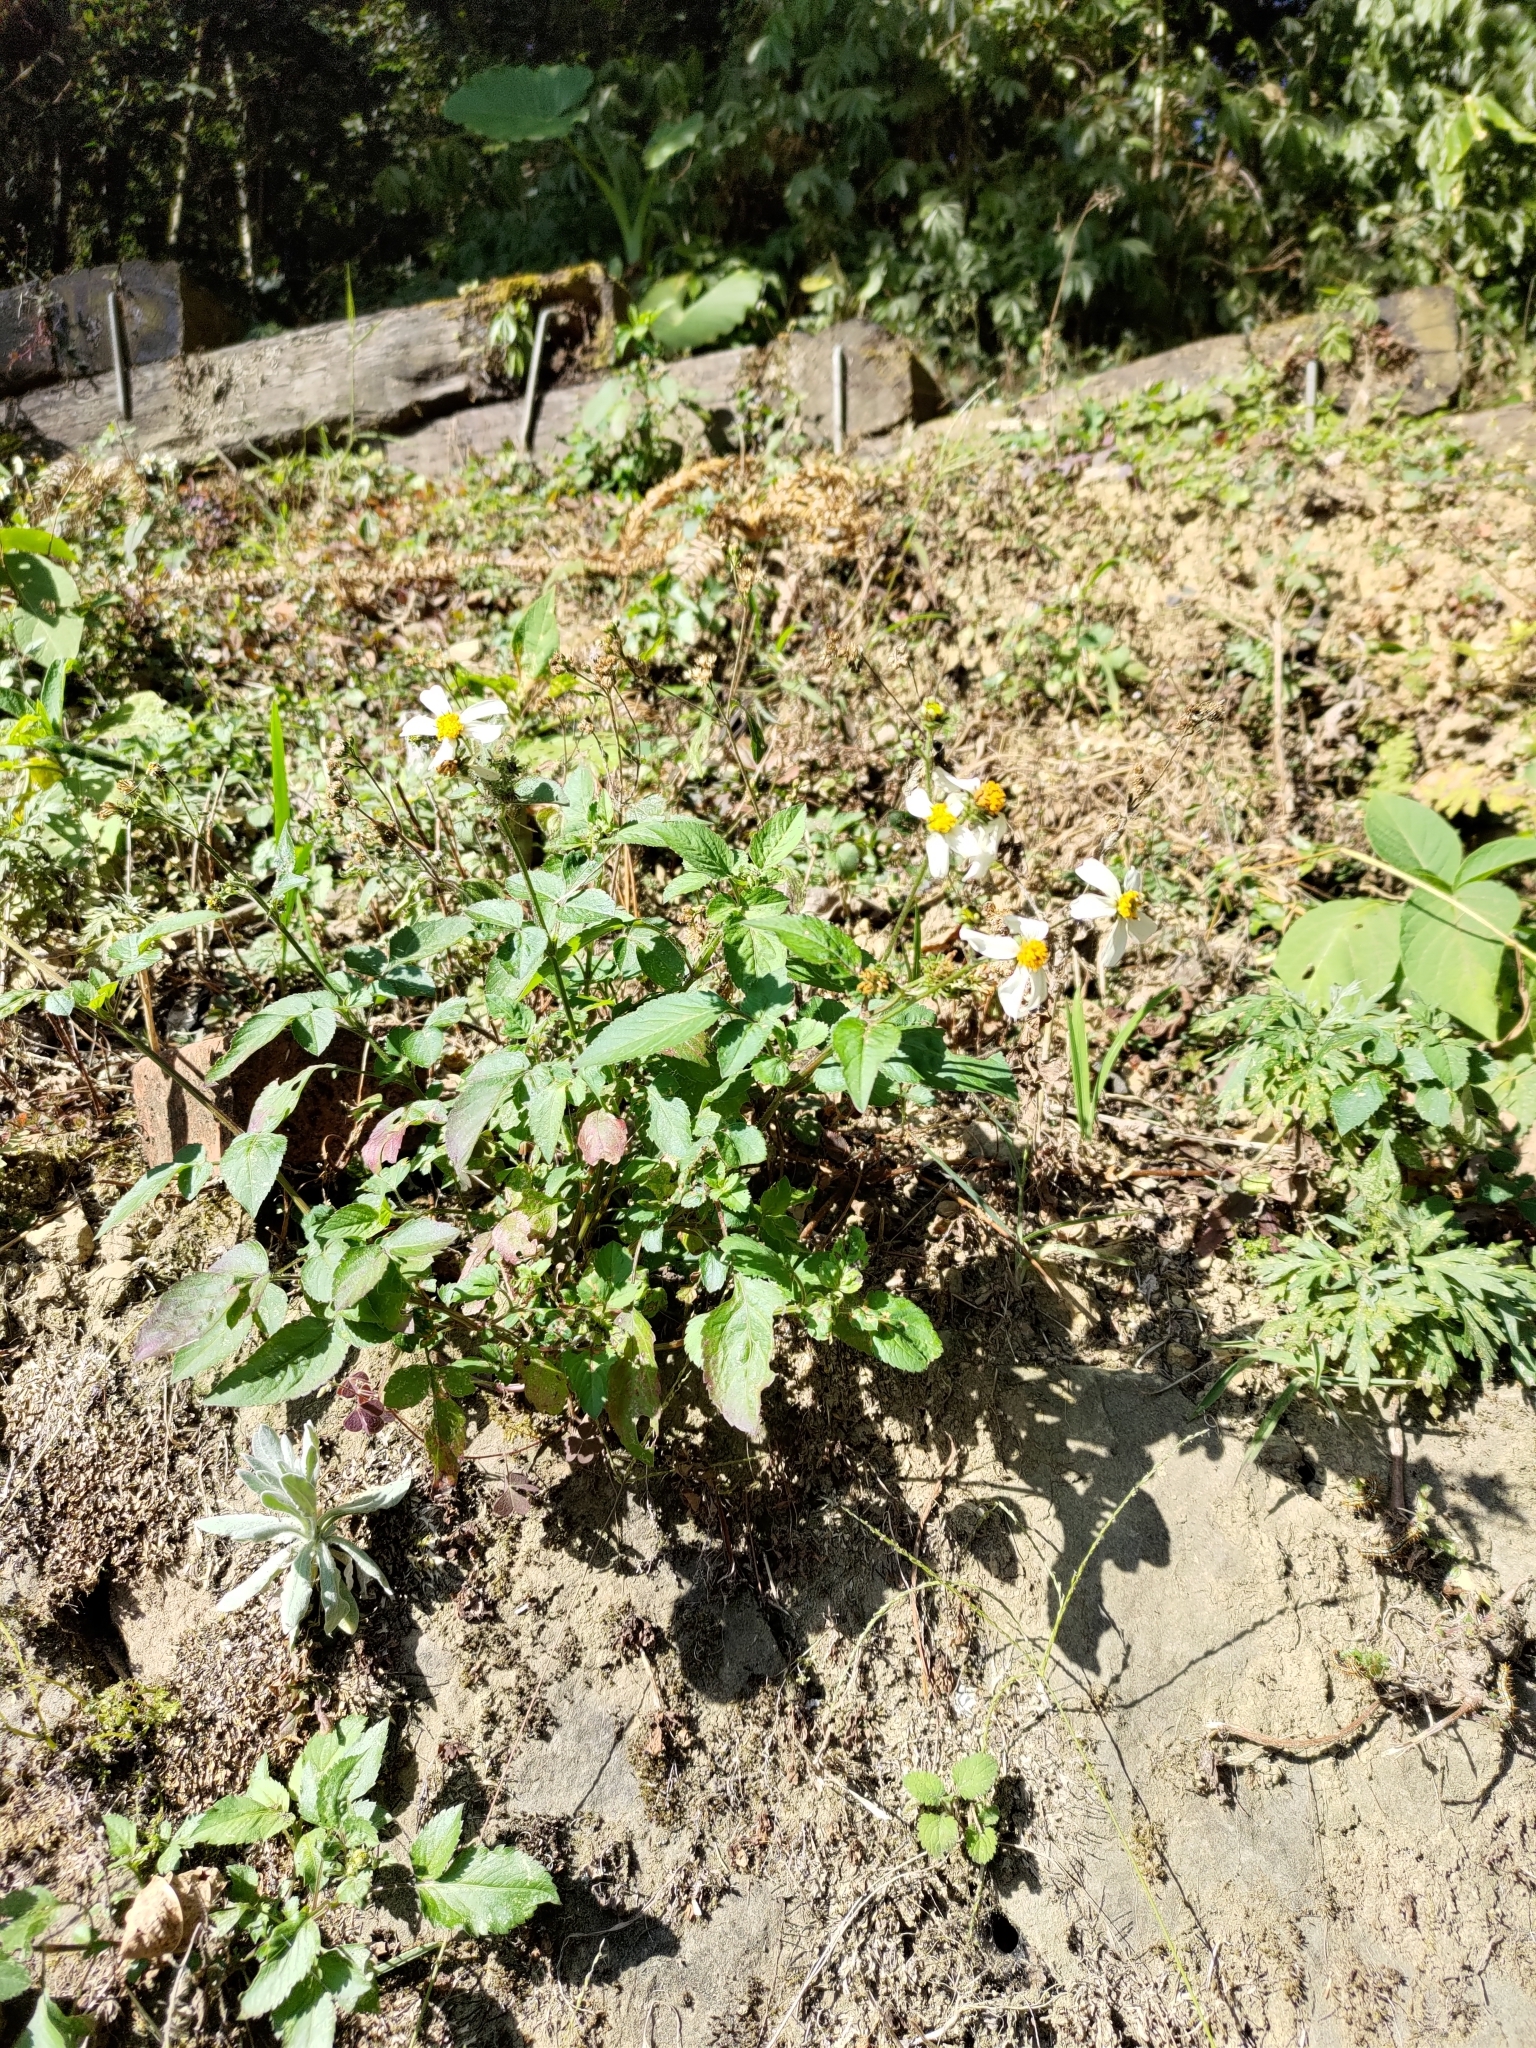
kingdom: Plantae
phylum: Tracheophyta
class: Magnoliopsida
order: Asterales
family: Asteraceae
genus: Bidens
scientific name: Bidens alba
